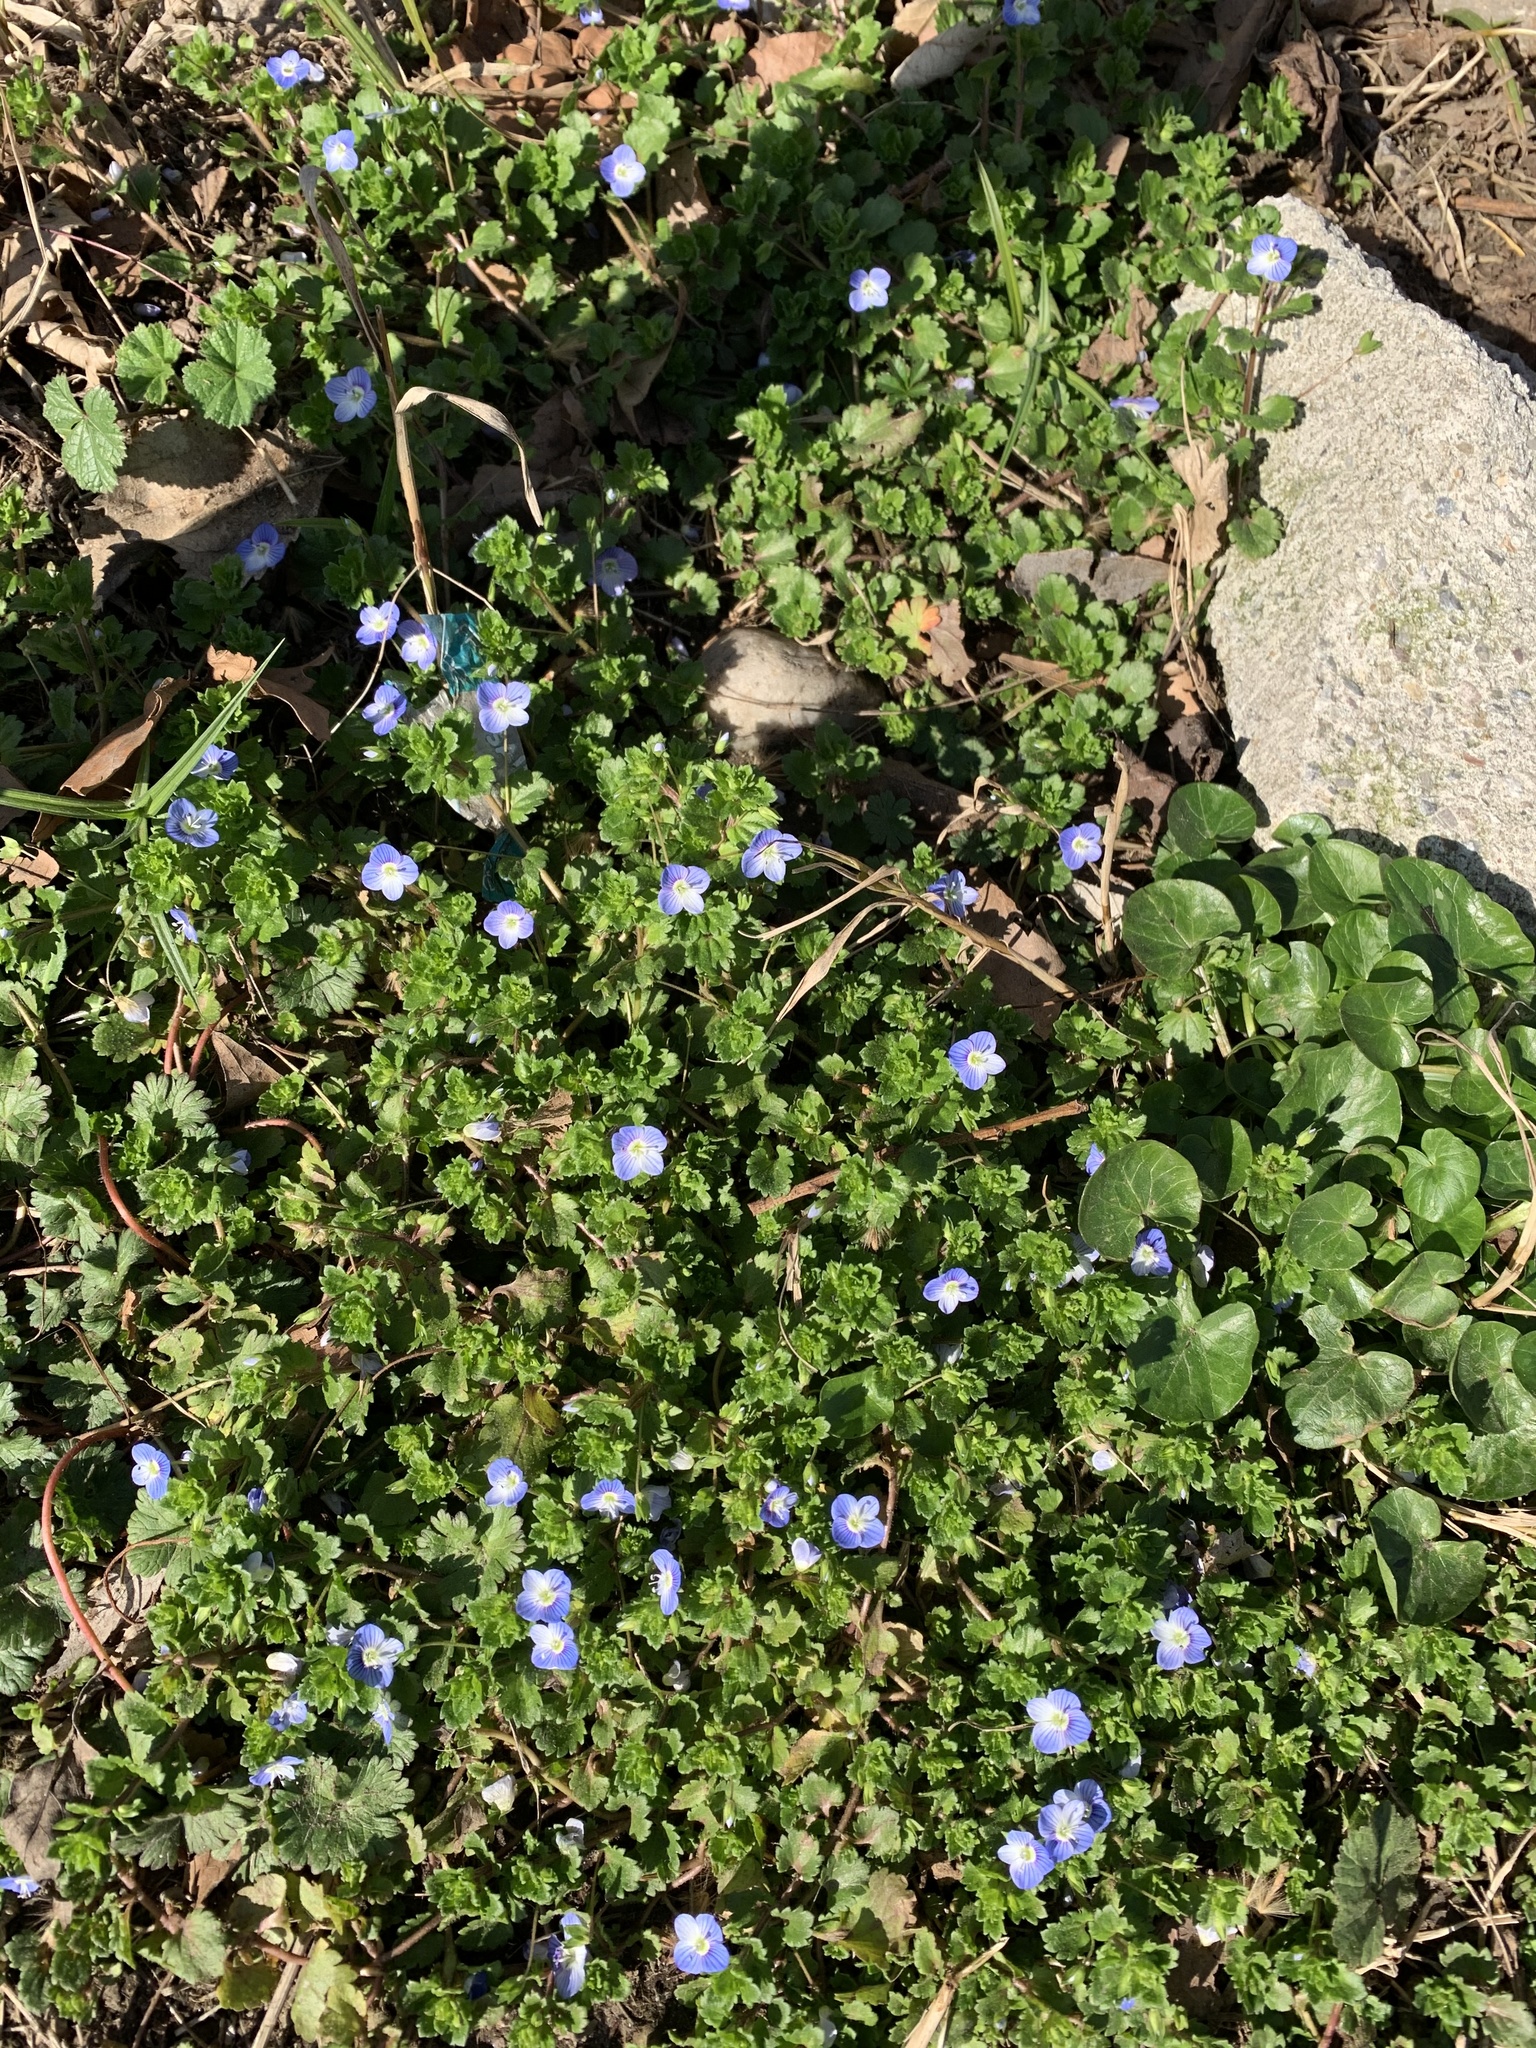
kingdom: Plantae
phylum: Tracheophyta
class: Magnoliopsida
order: Lamiales
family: Plantaginaceae
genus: Veronica
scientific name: Veronica persica
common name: Common field-speedwell
